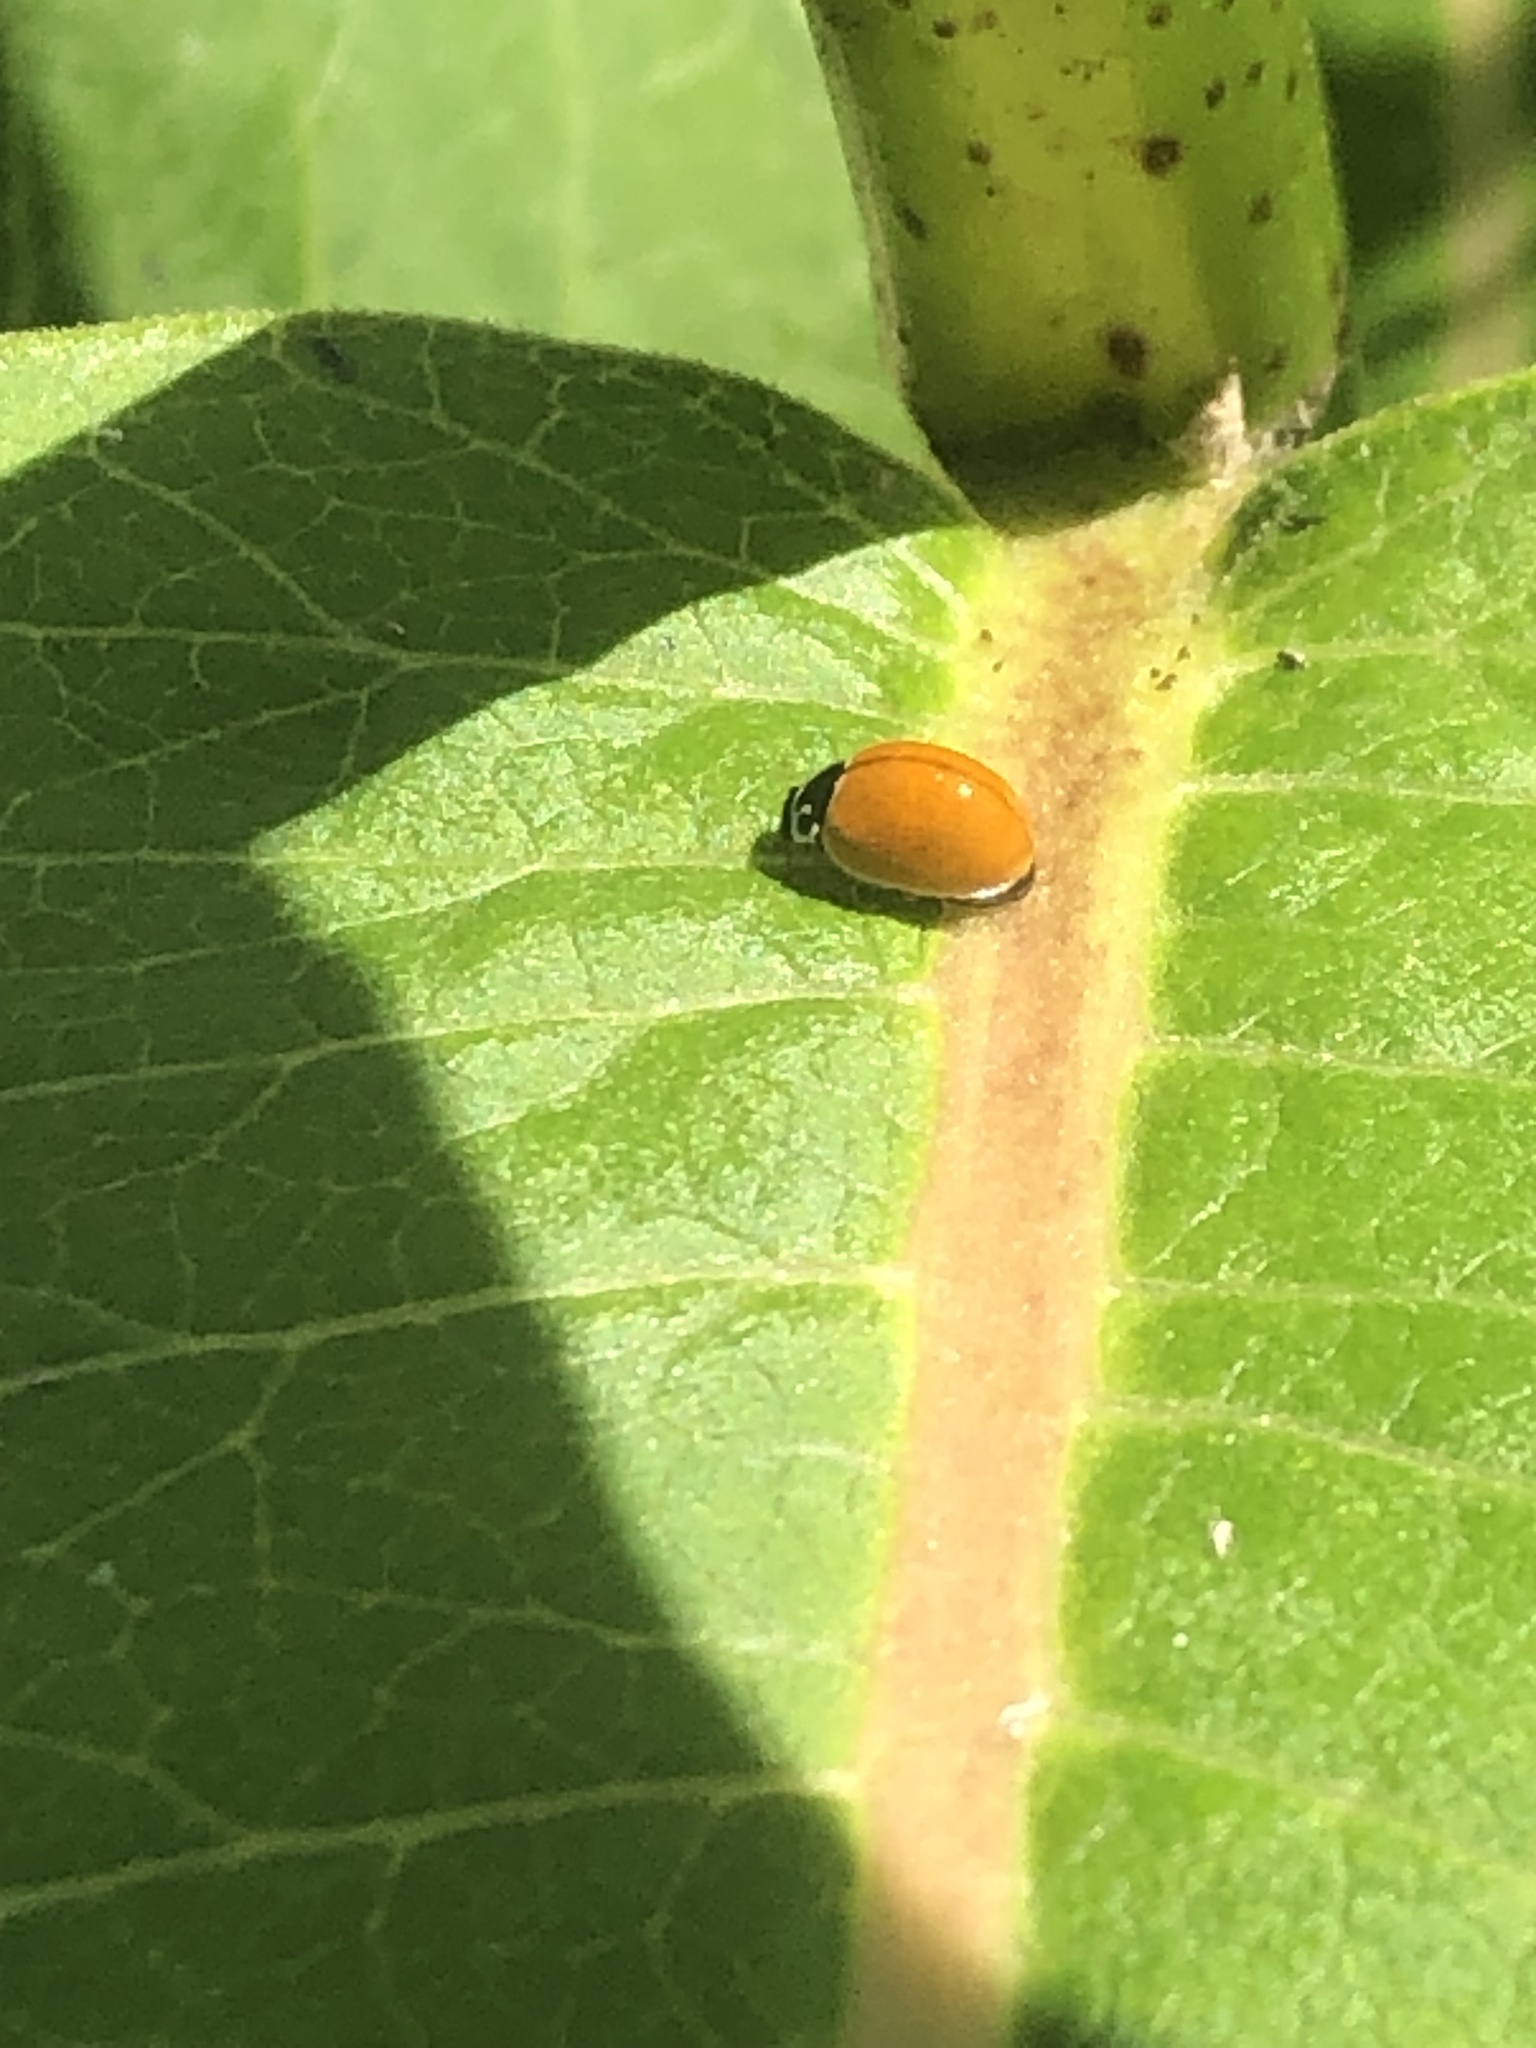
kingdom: Animalia
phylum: Arthropoda
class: Insecta
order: Coleoptera
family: Coccinellidae
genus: Cycloneda
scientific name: Cycloneda munda
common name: Polished lady beetle
